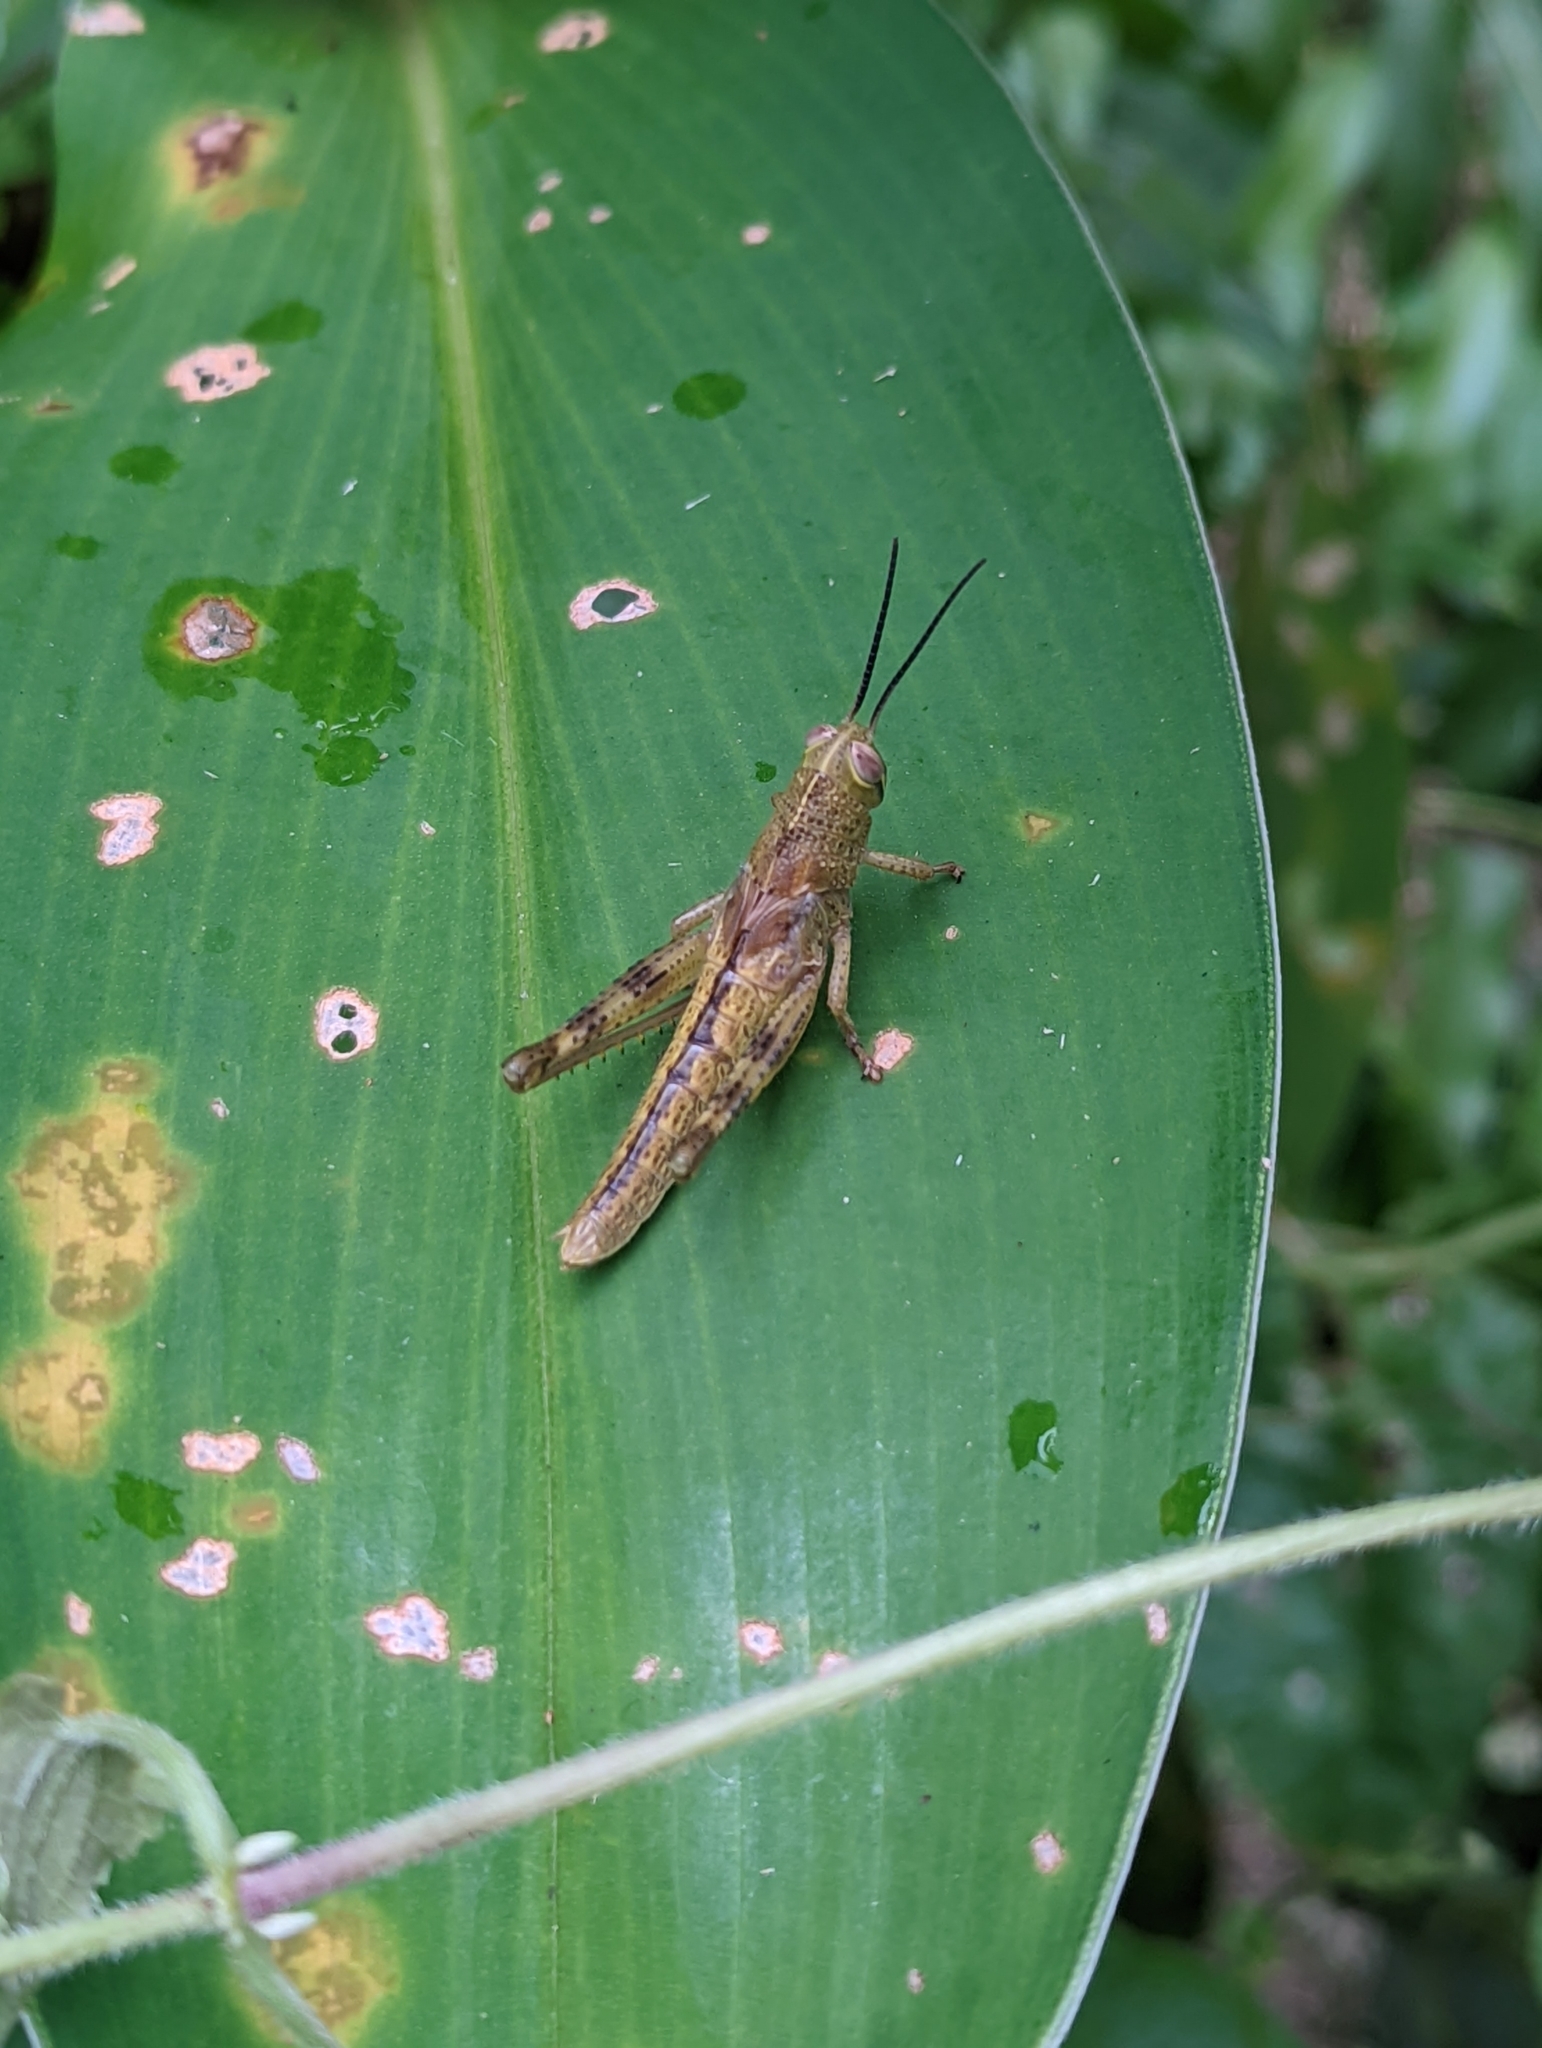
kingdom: Animalia
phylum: Arthropoda
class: Insecta
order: Orthoptera
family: Acrididae
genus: Valanga
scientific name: Valanga nigricornis
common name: Javanese bird grasshopper
